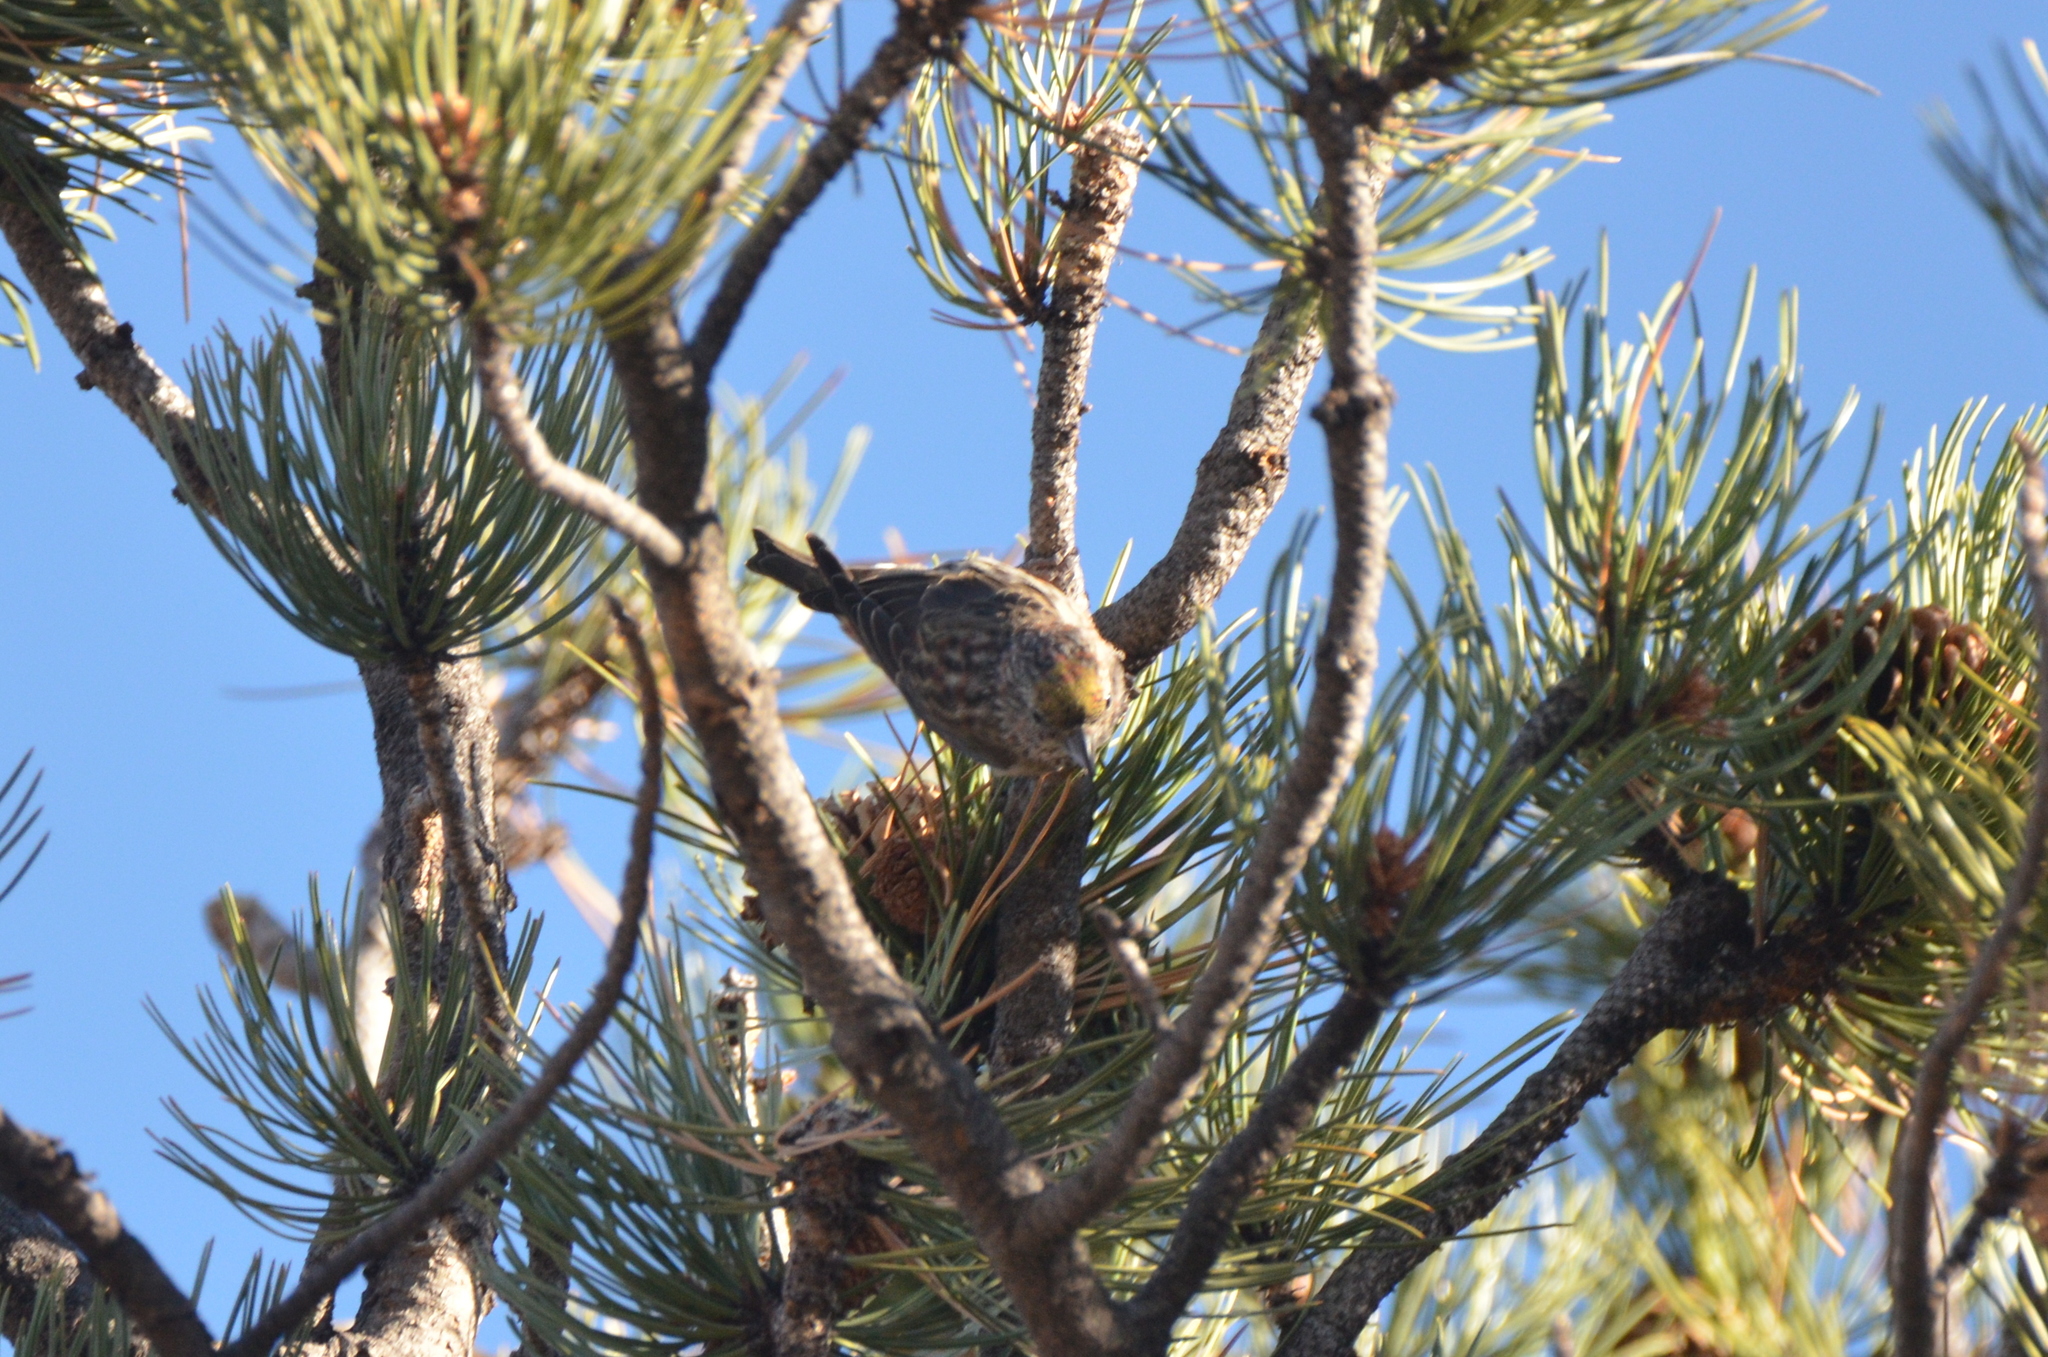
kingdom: Animalia
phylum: Chordata
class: Aves
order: Passeriformes
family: Fringillidae
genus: Loxia
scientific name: Loxia curvirostra
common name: Red crossbill
